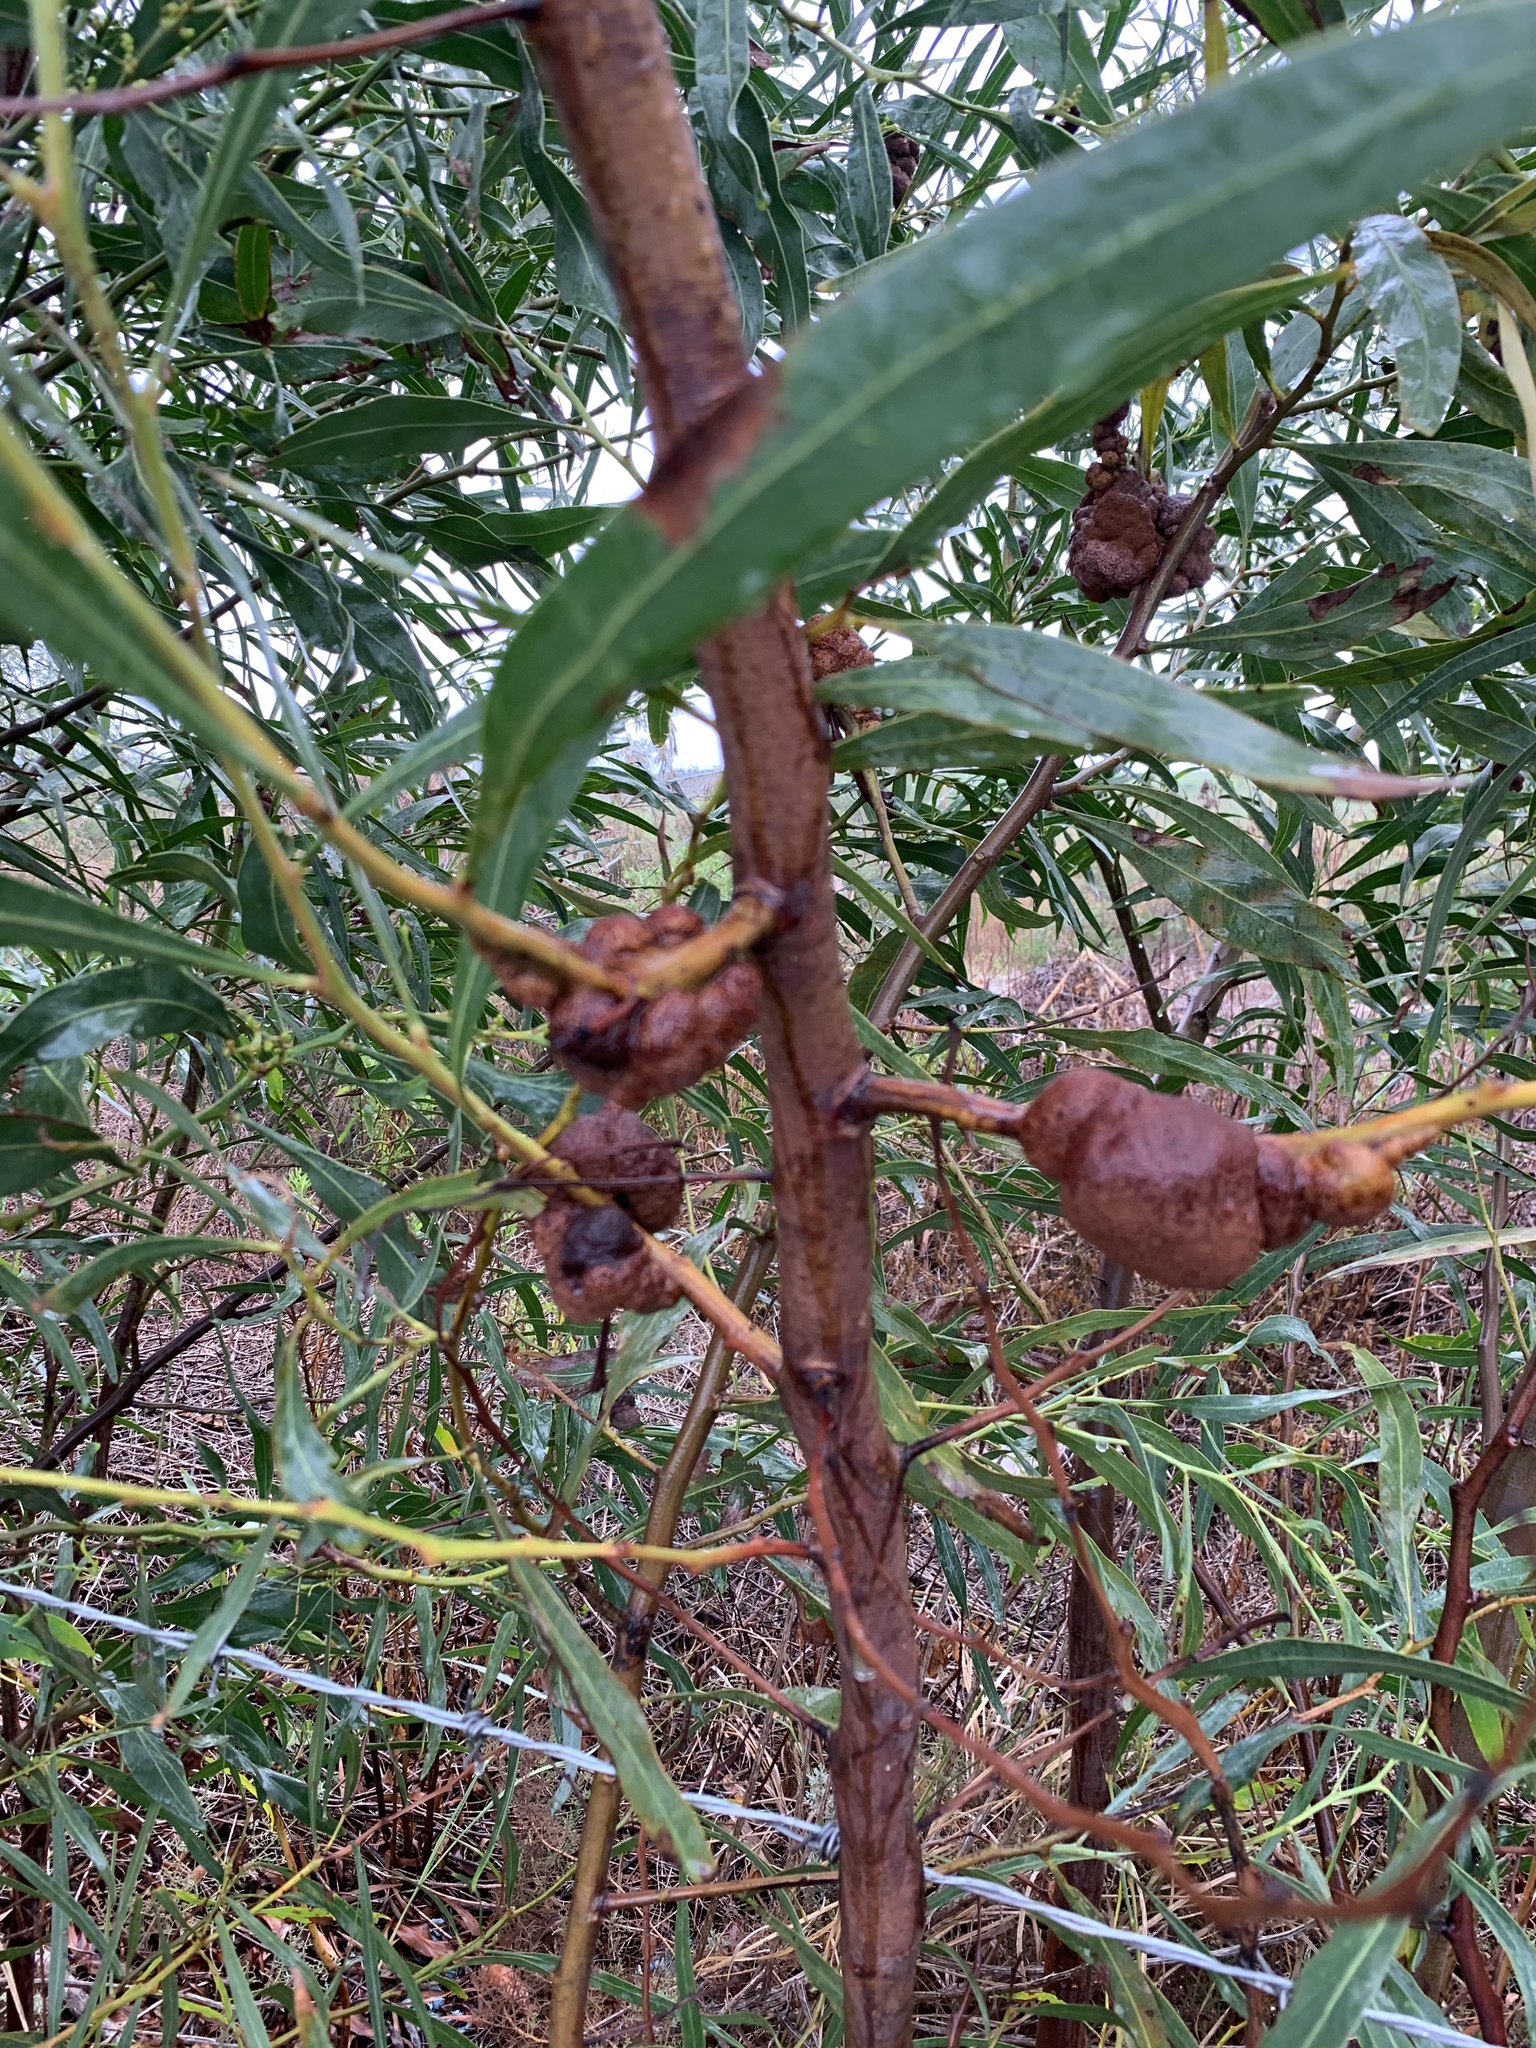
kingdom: Fungi
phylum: Basidiomycota
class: Pucciniomycetes
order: Pucciniales
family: Uromycladiaceae
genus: Uromycladium
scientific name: Uromycladium morrisii
